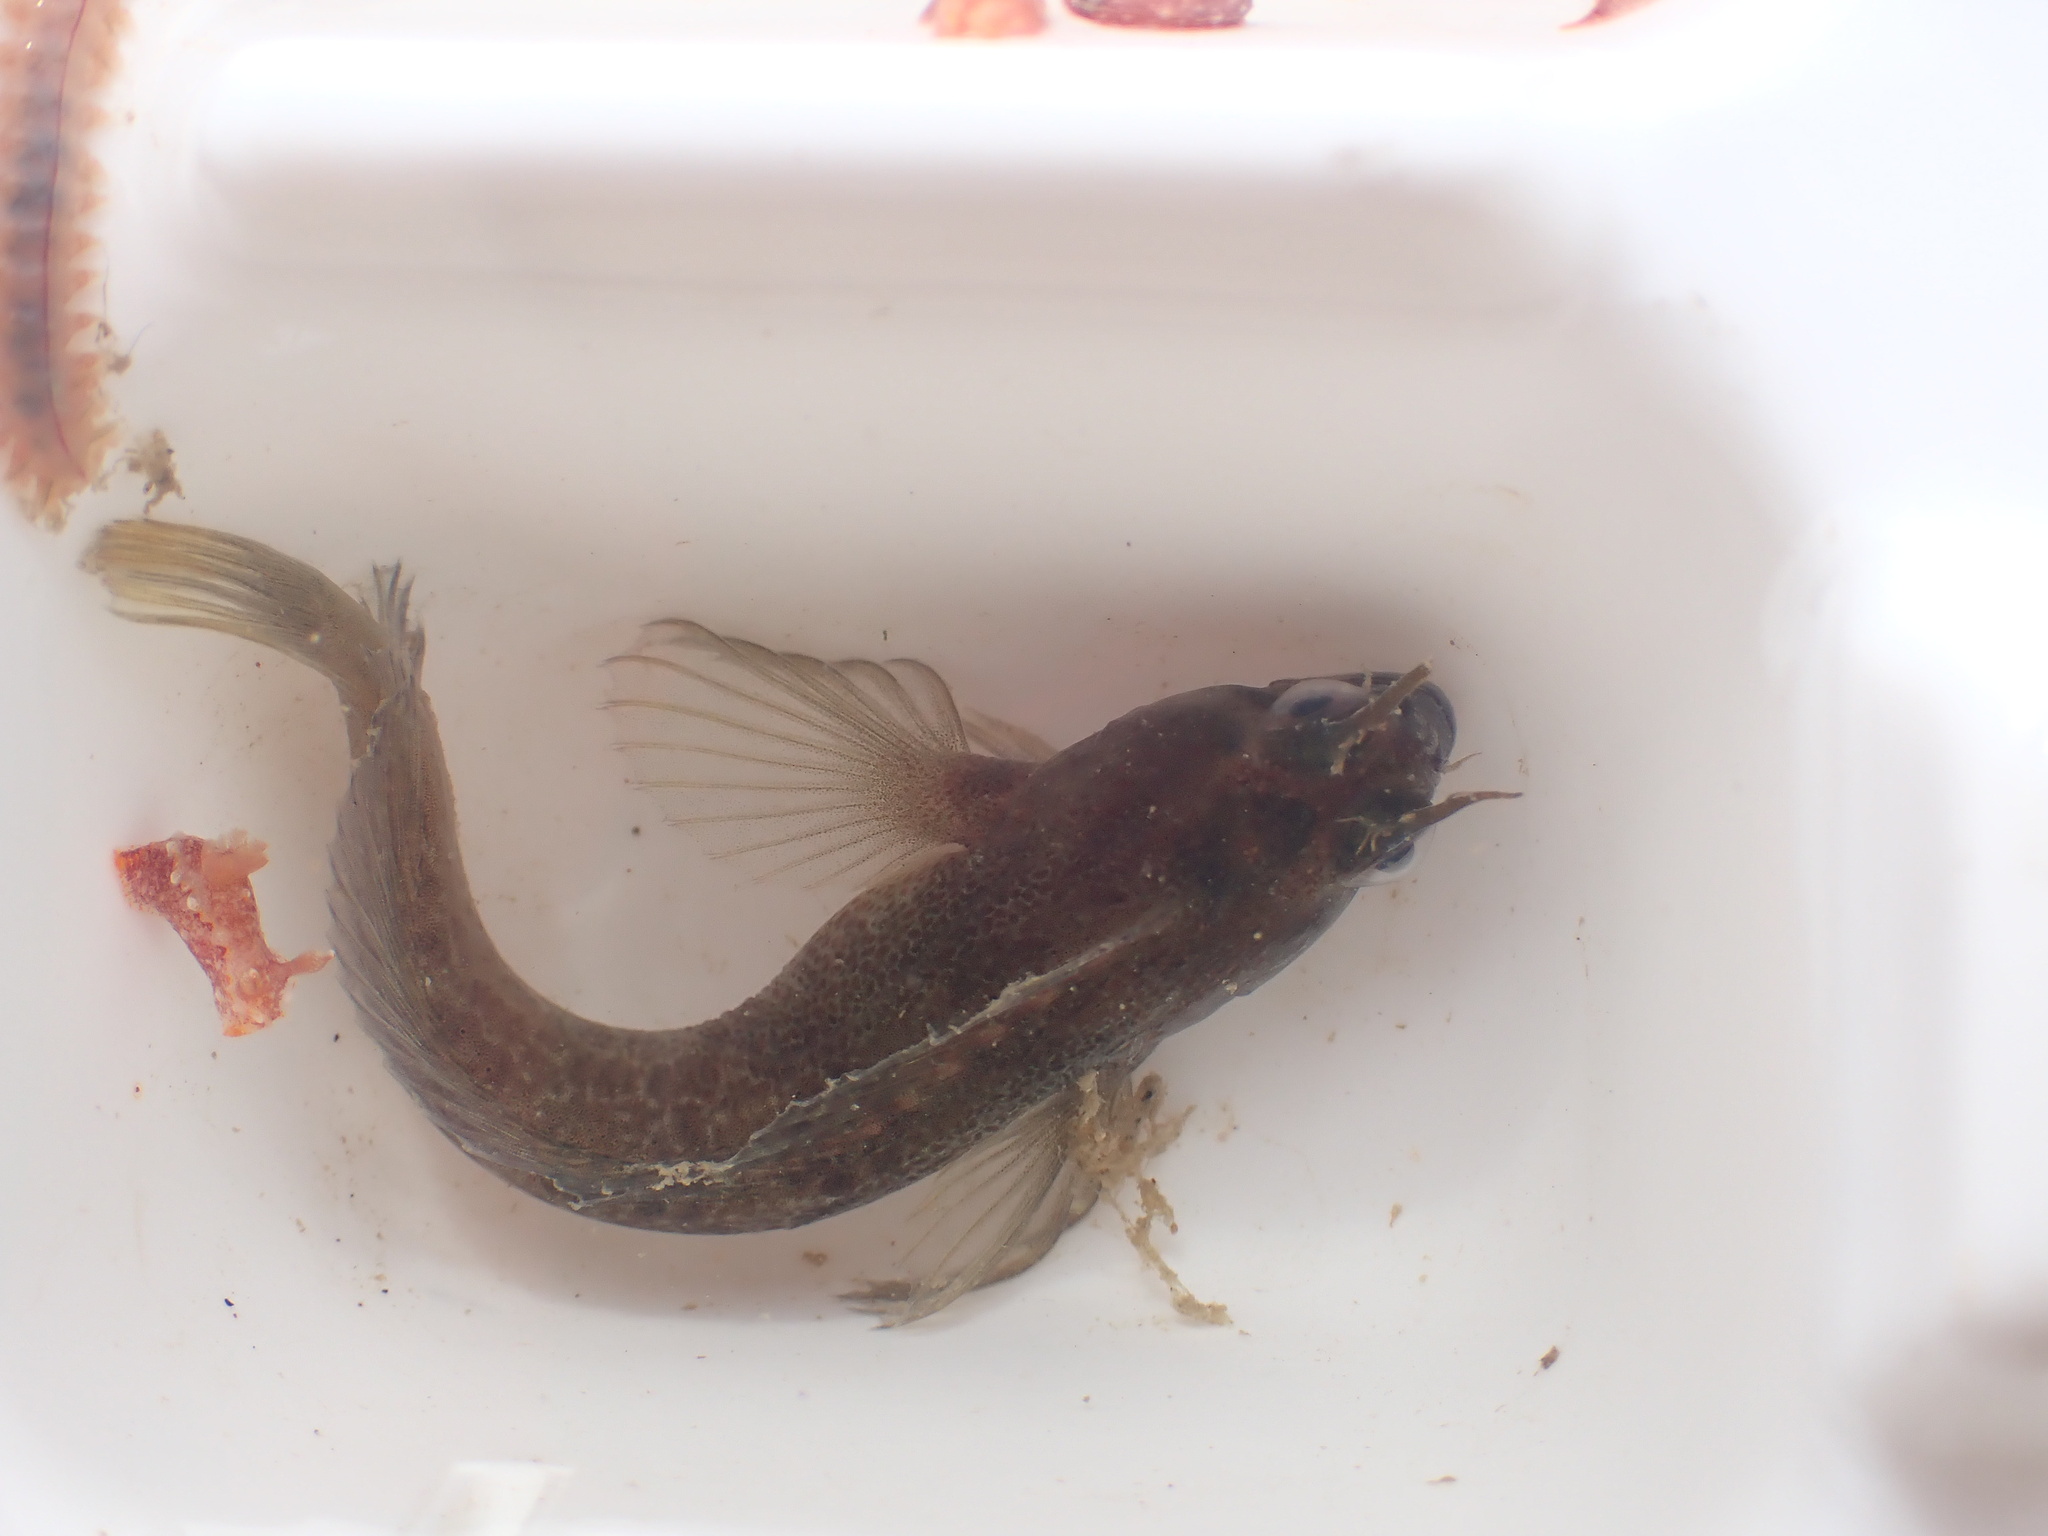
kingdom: Animalia
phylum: Chordata
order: Perciformes
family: Blenniidae
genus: Parablennius
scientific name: Parablennius tasmanianus
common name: Tasmanian blenny
